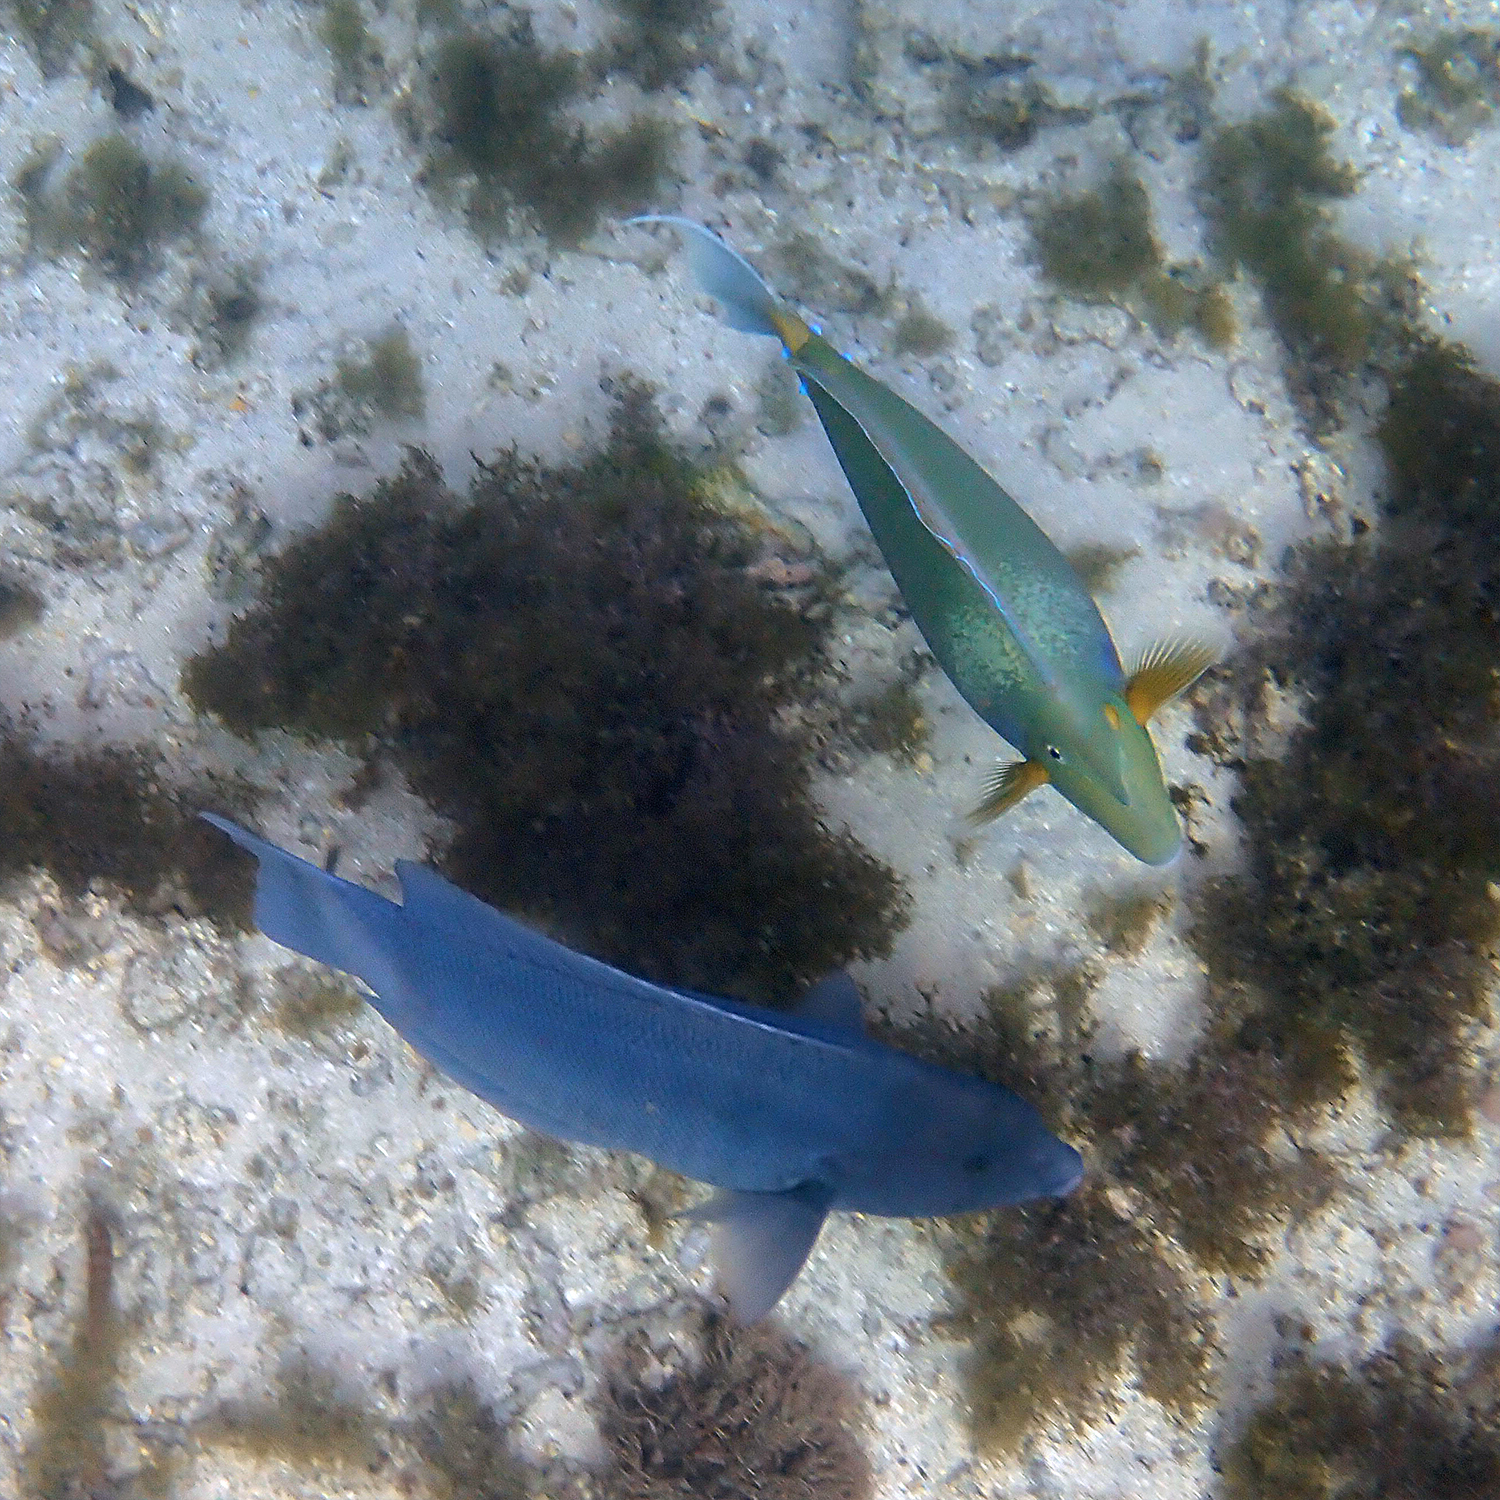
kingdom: Animalia
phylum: Chordata
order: Perciformes
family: Labridae
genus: Coris
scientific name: Coris bulbifrons
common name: Doubleheader
